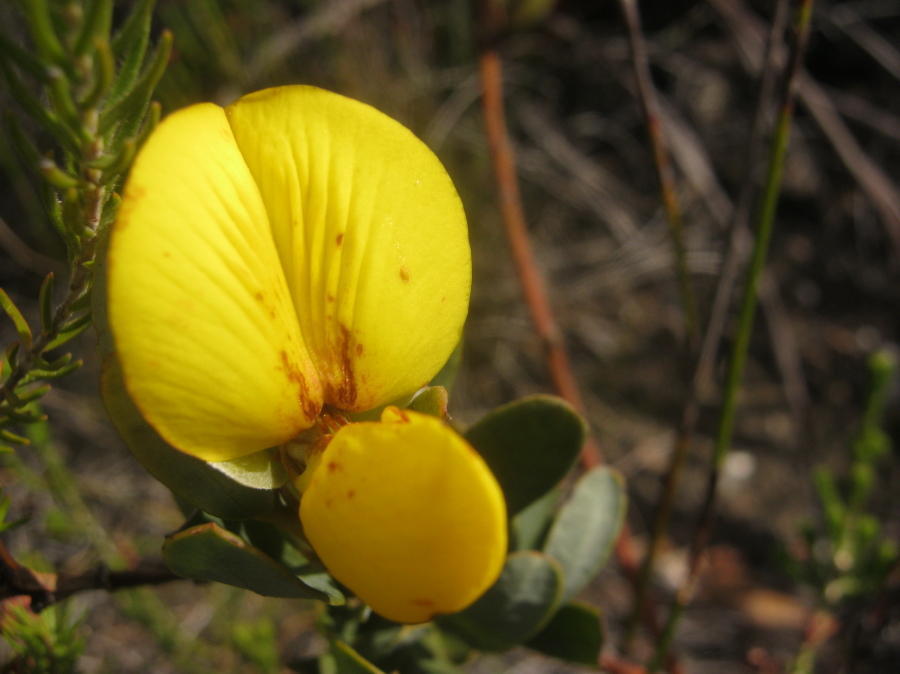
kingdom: Plantae
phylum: Tracheophyta
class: Magnoliopsida
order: Fabales
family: Fabaceae
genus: Cyclopia
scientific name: Cyclopia subternata
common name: Honeybush tea
